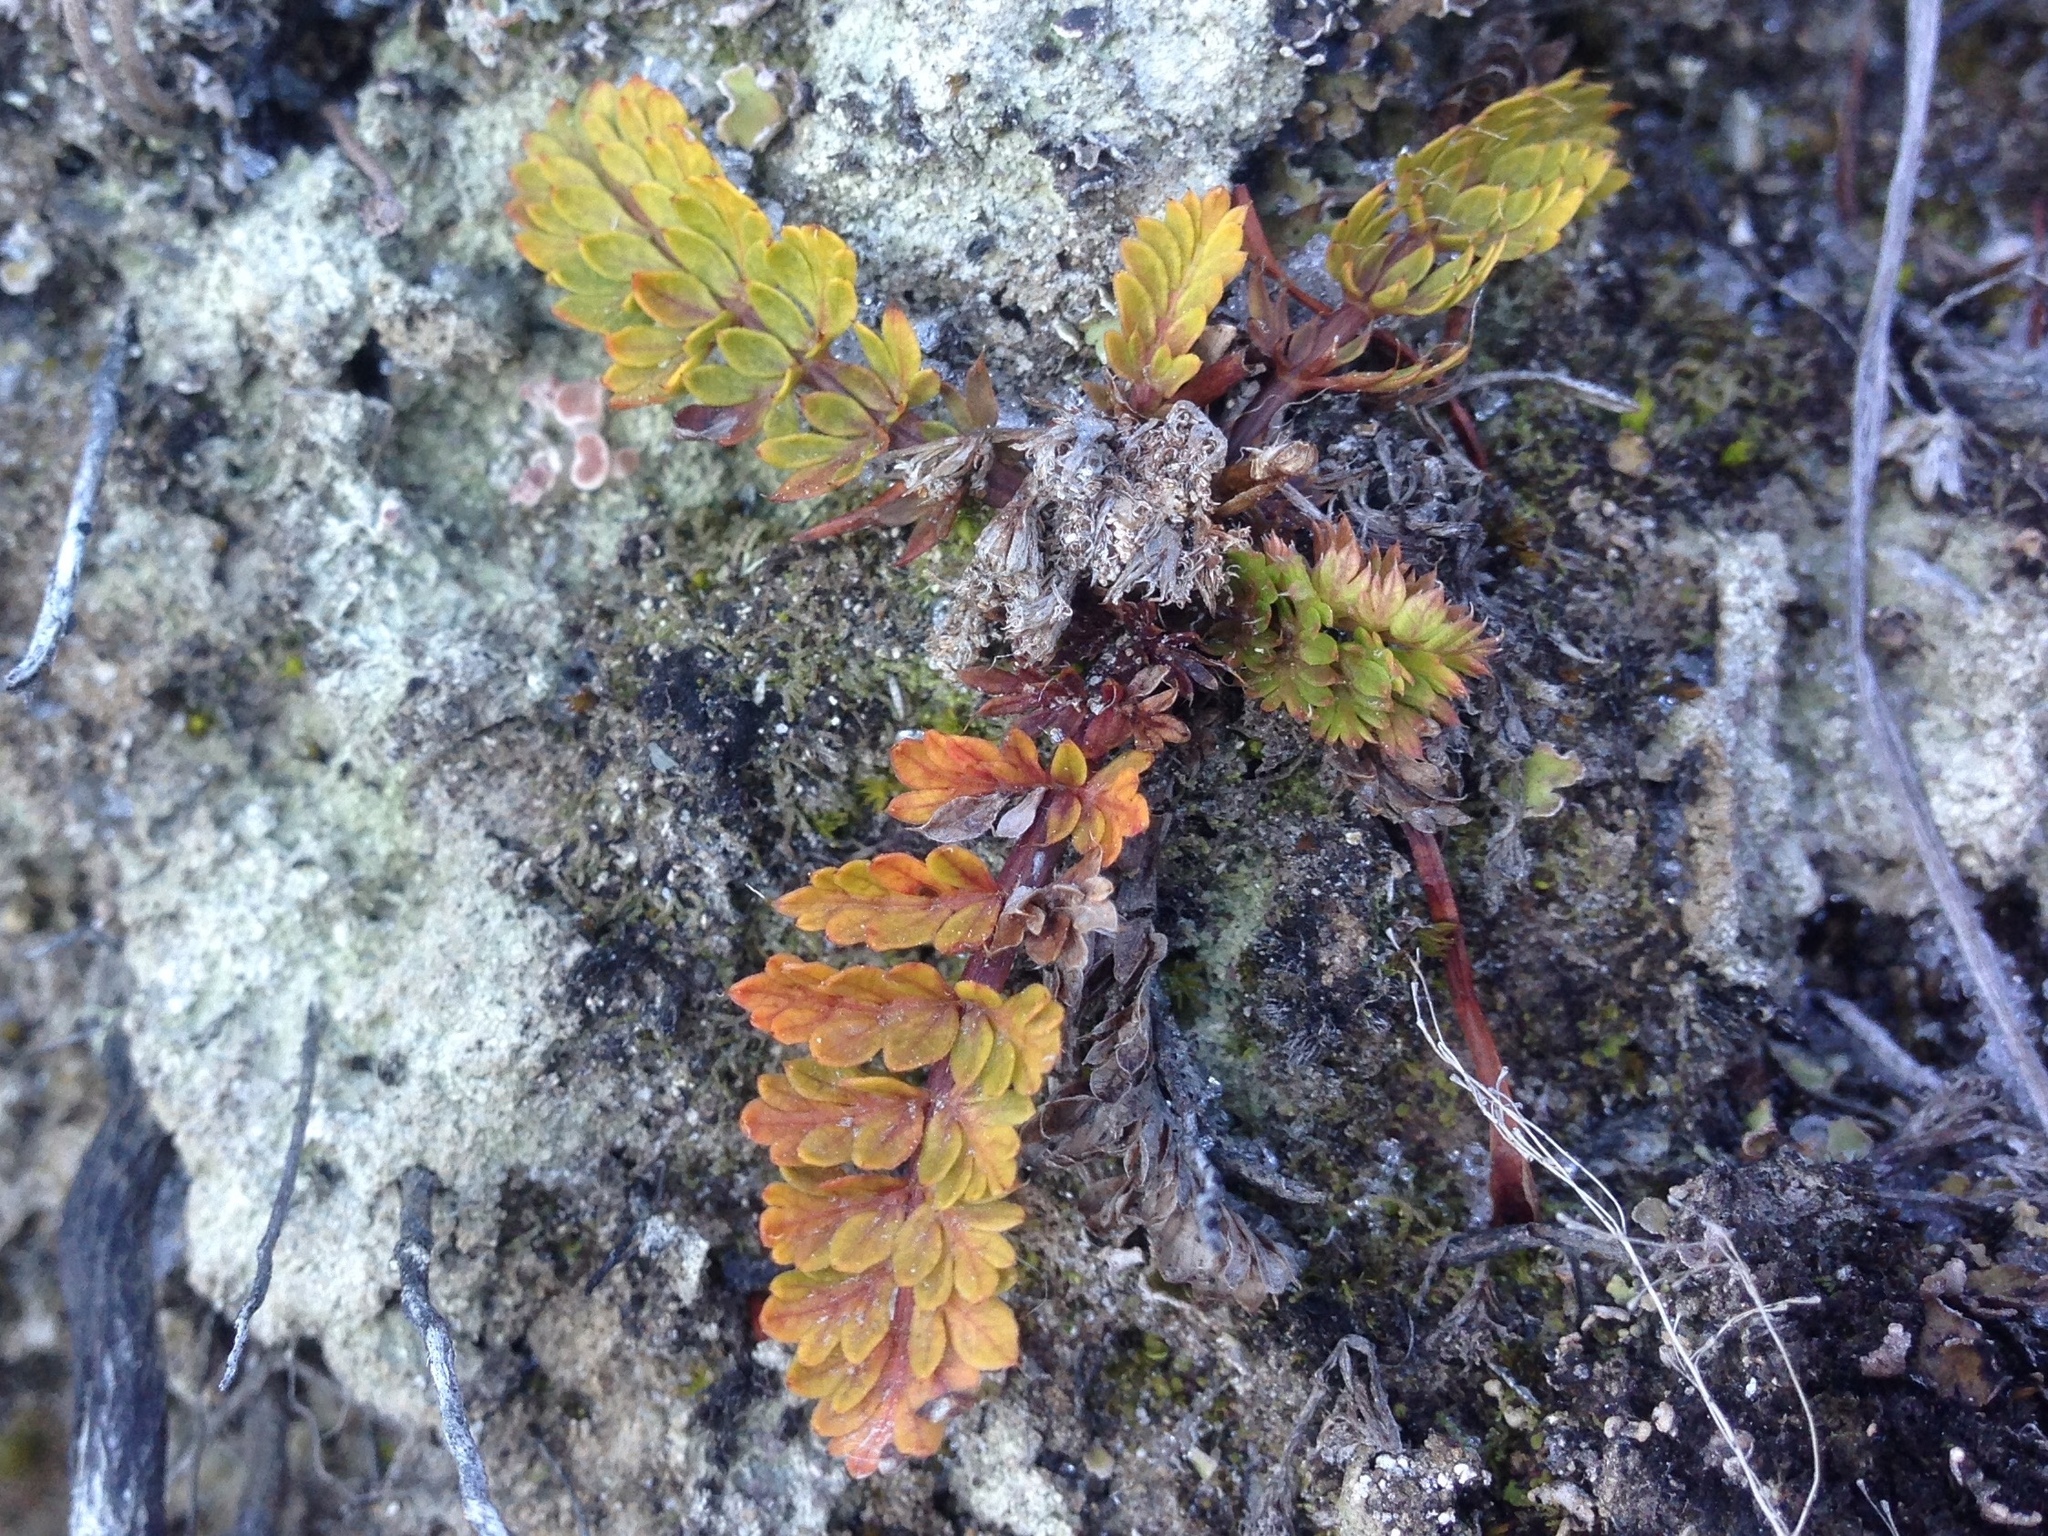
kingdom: Plantae
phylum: Tracheophyta
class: Magnoliopsida
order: Apiales
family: Apiaceae
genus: Anisotome
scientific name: Anisotome aromatica
